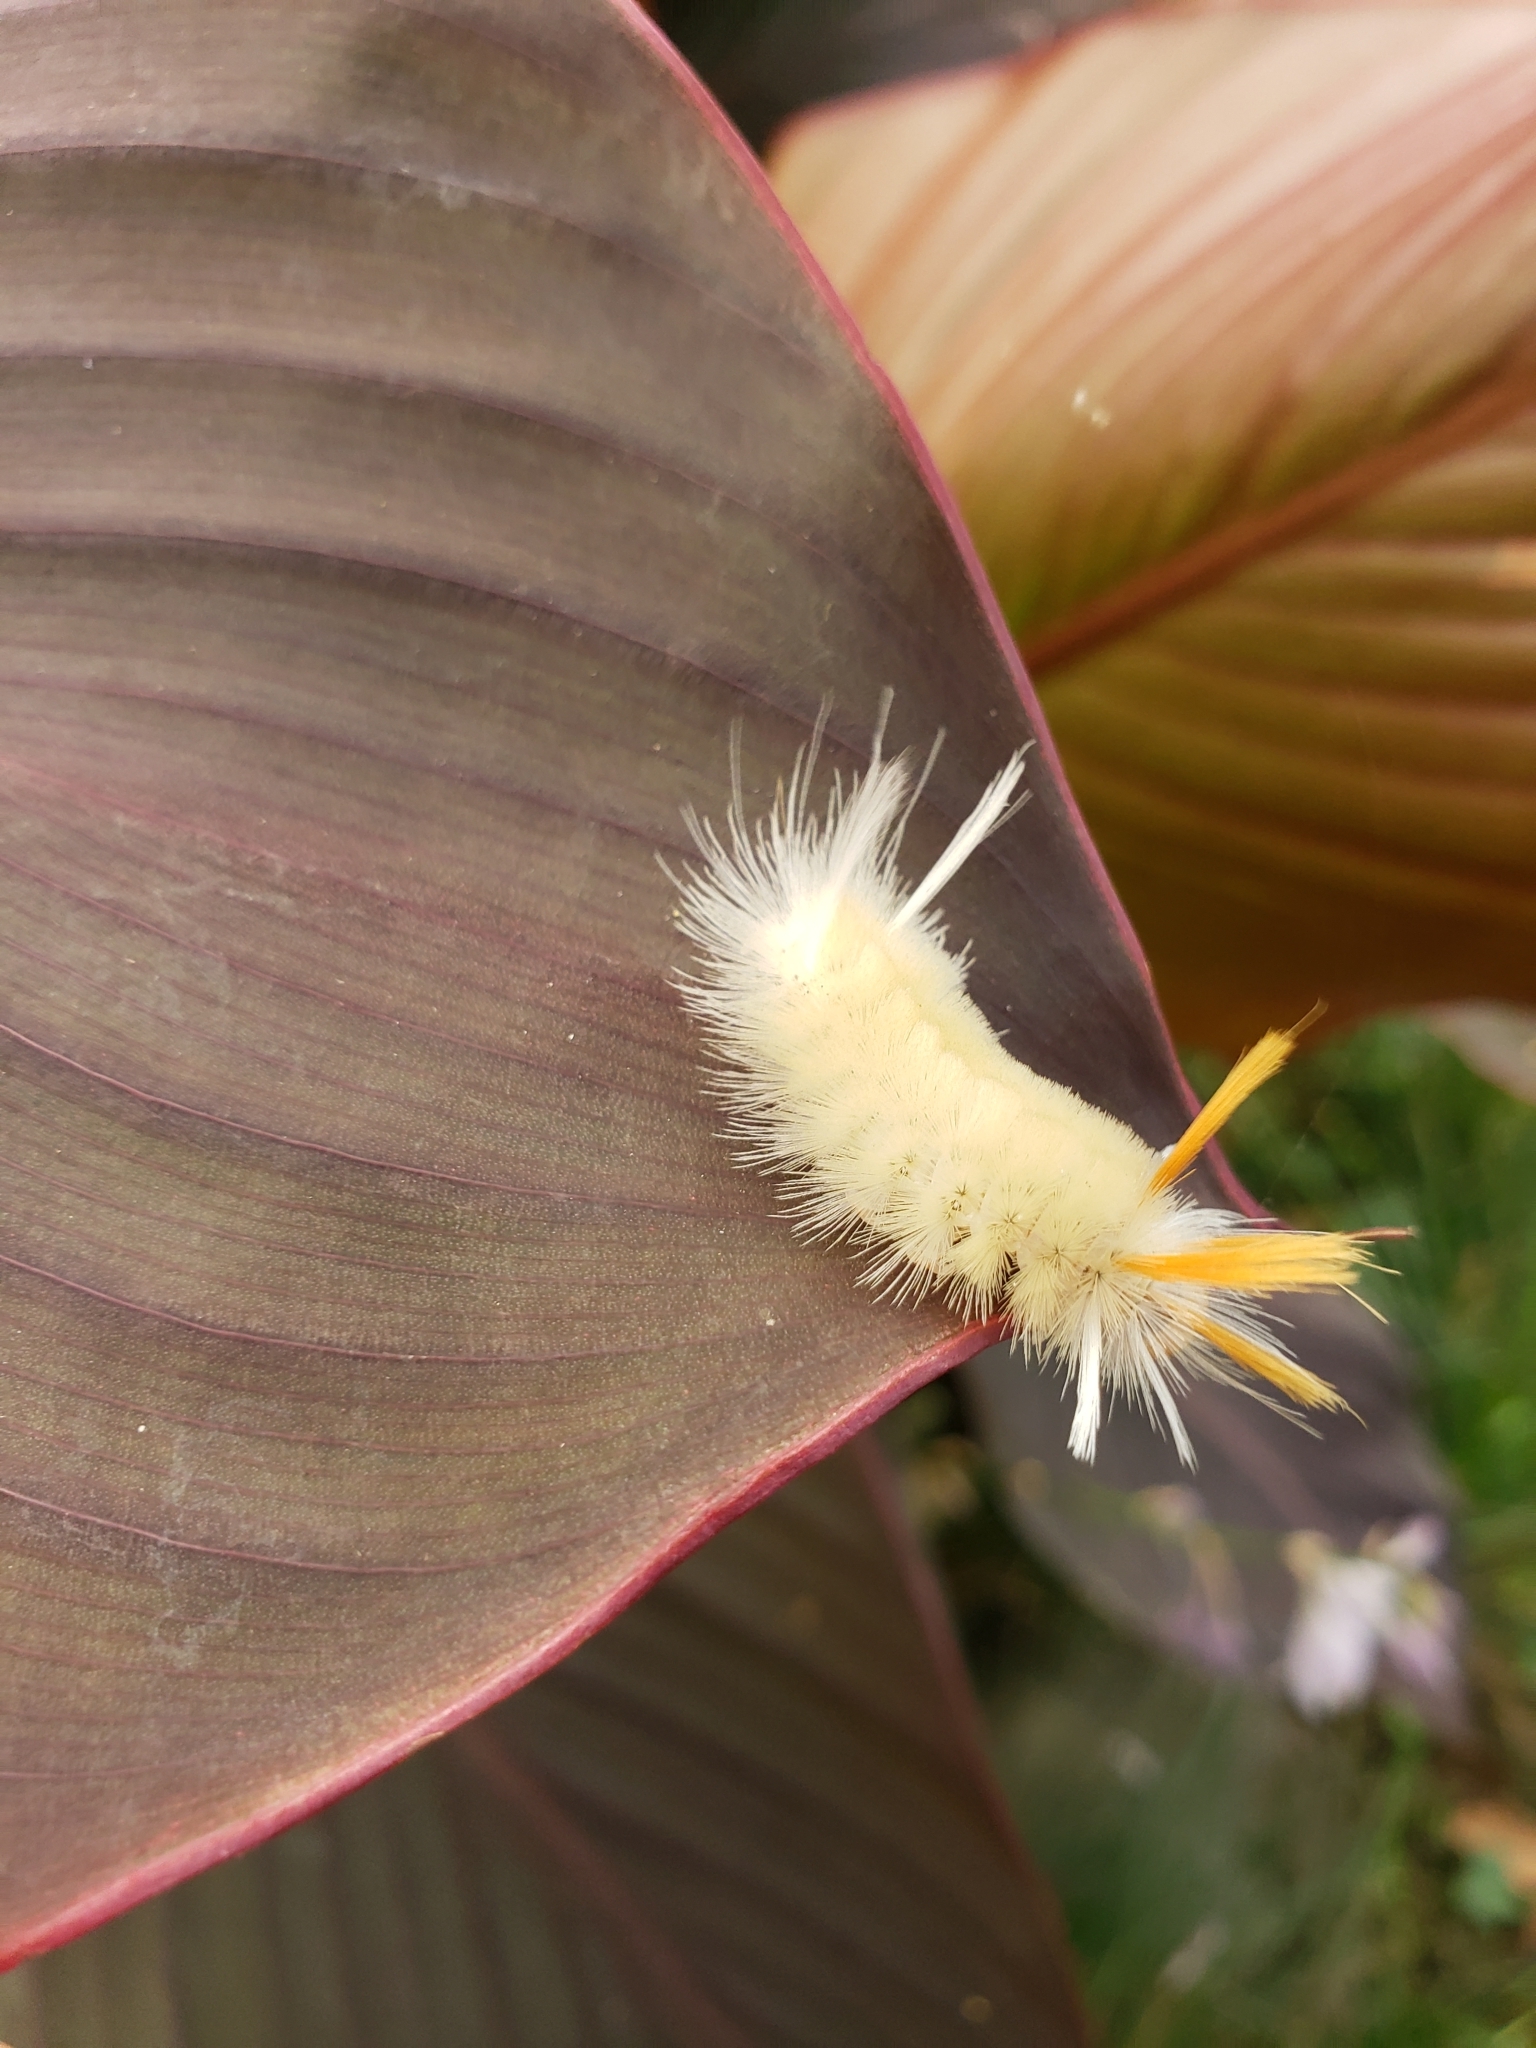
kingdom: Animalia
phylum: Arthropoda
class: Insecta
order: Lepidoptera
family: Erebidae
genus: Halysidota
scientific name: Halysidota harrisii
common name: Sycamore tussock moth
